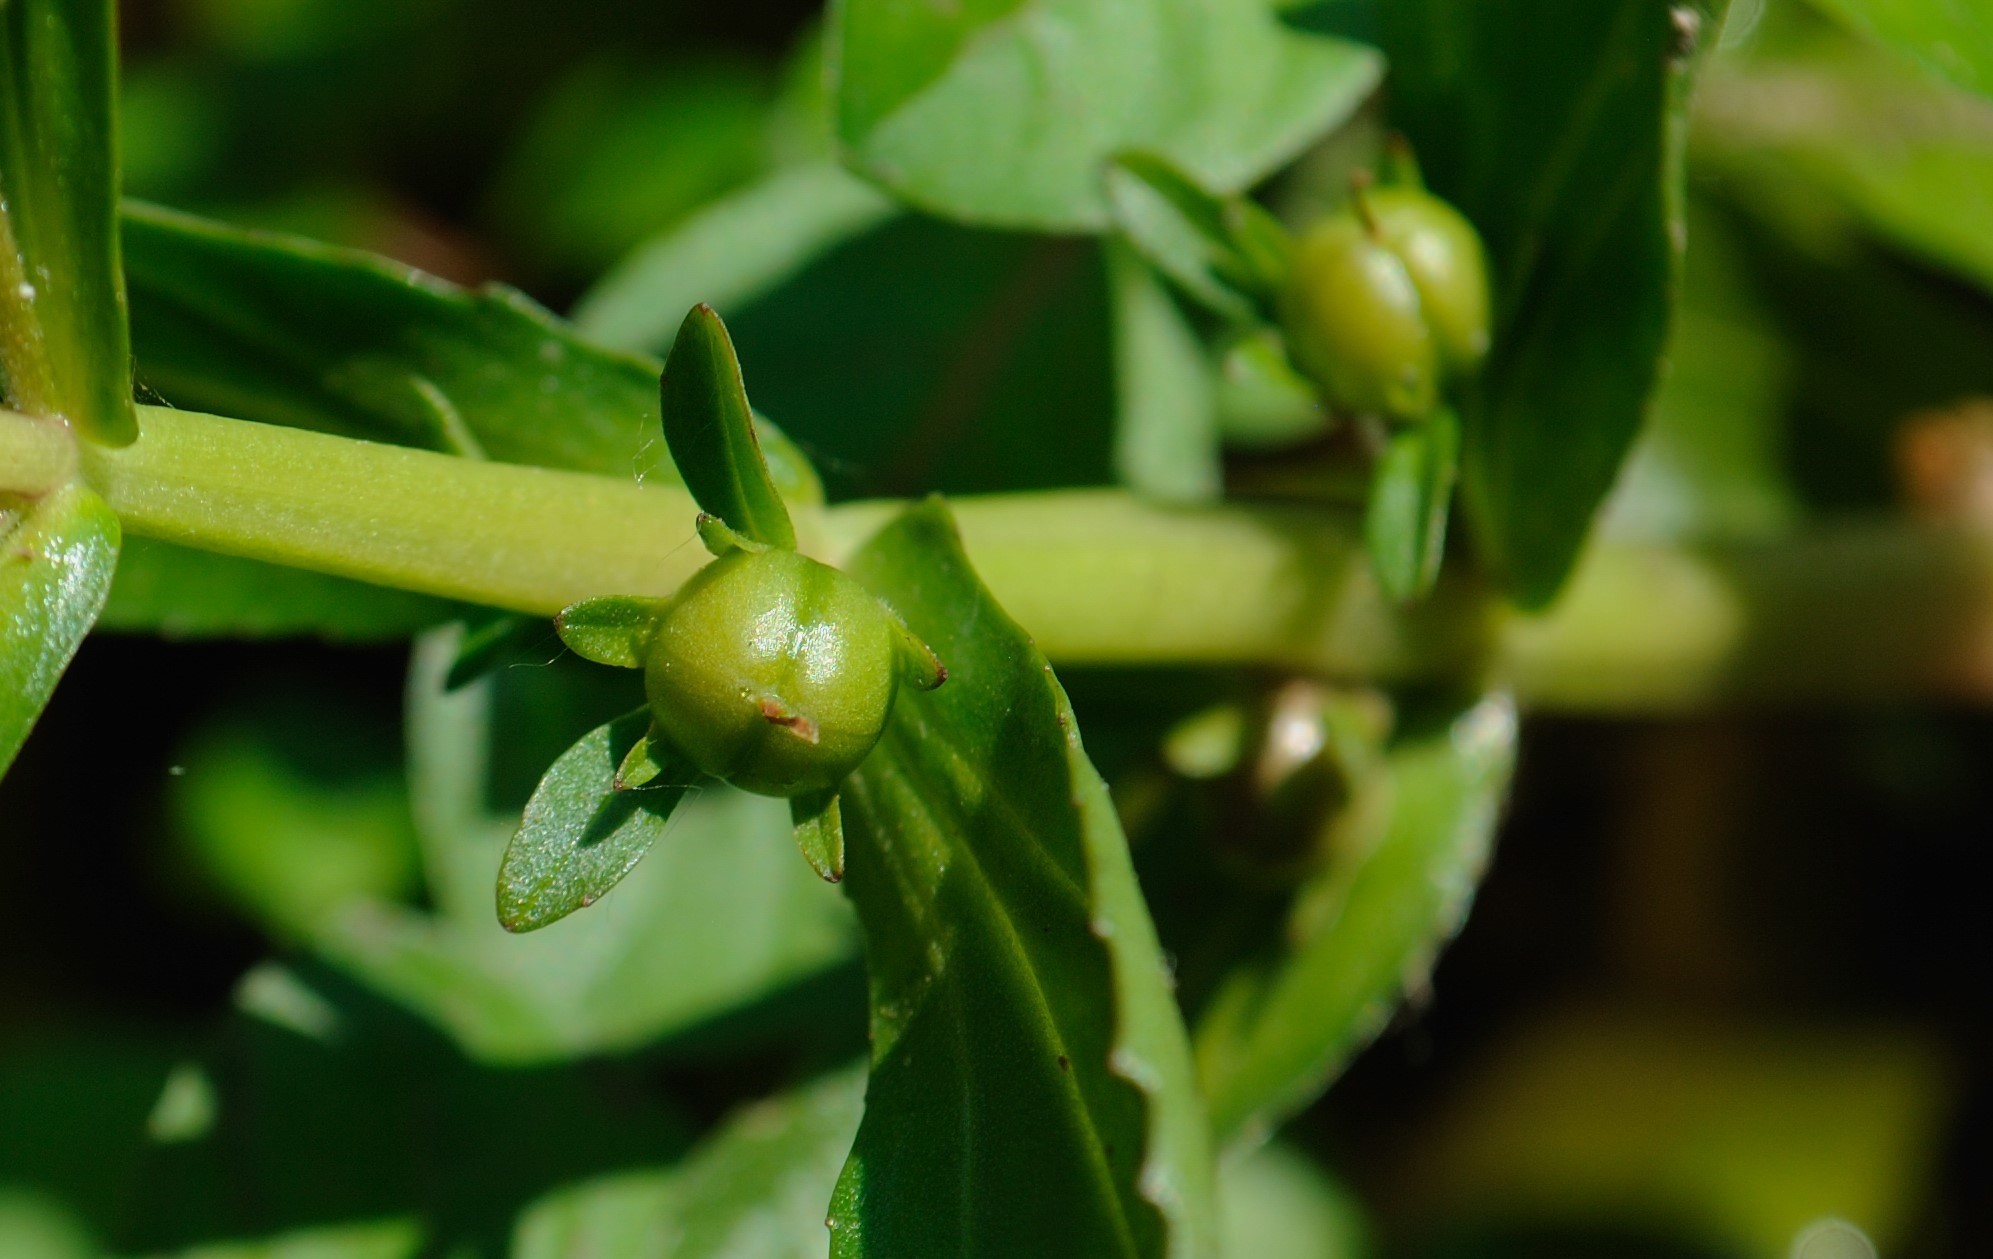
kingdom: Plantae
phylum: Tracheophyta
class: Magnoliopsida
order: Lamiales
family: Plantaginaceae
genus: Gratiola
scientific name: Gratiola virginiana
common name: Roundfruit hedgehyssop
